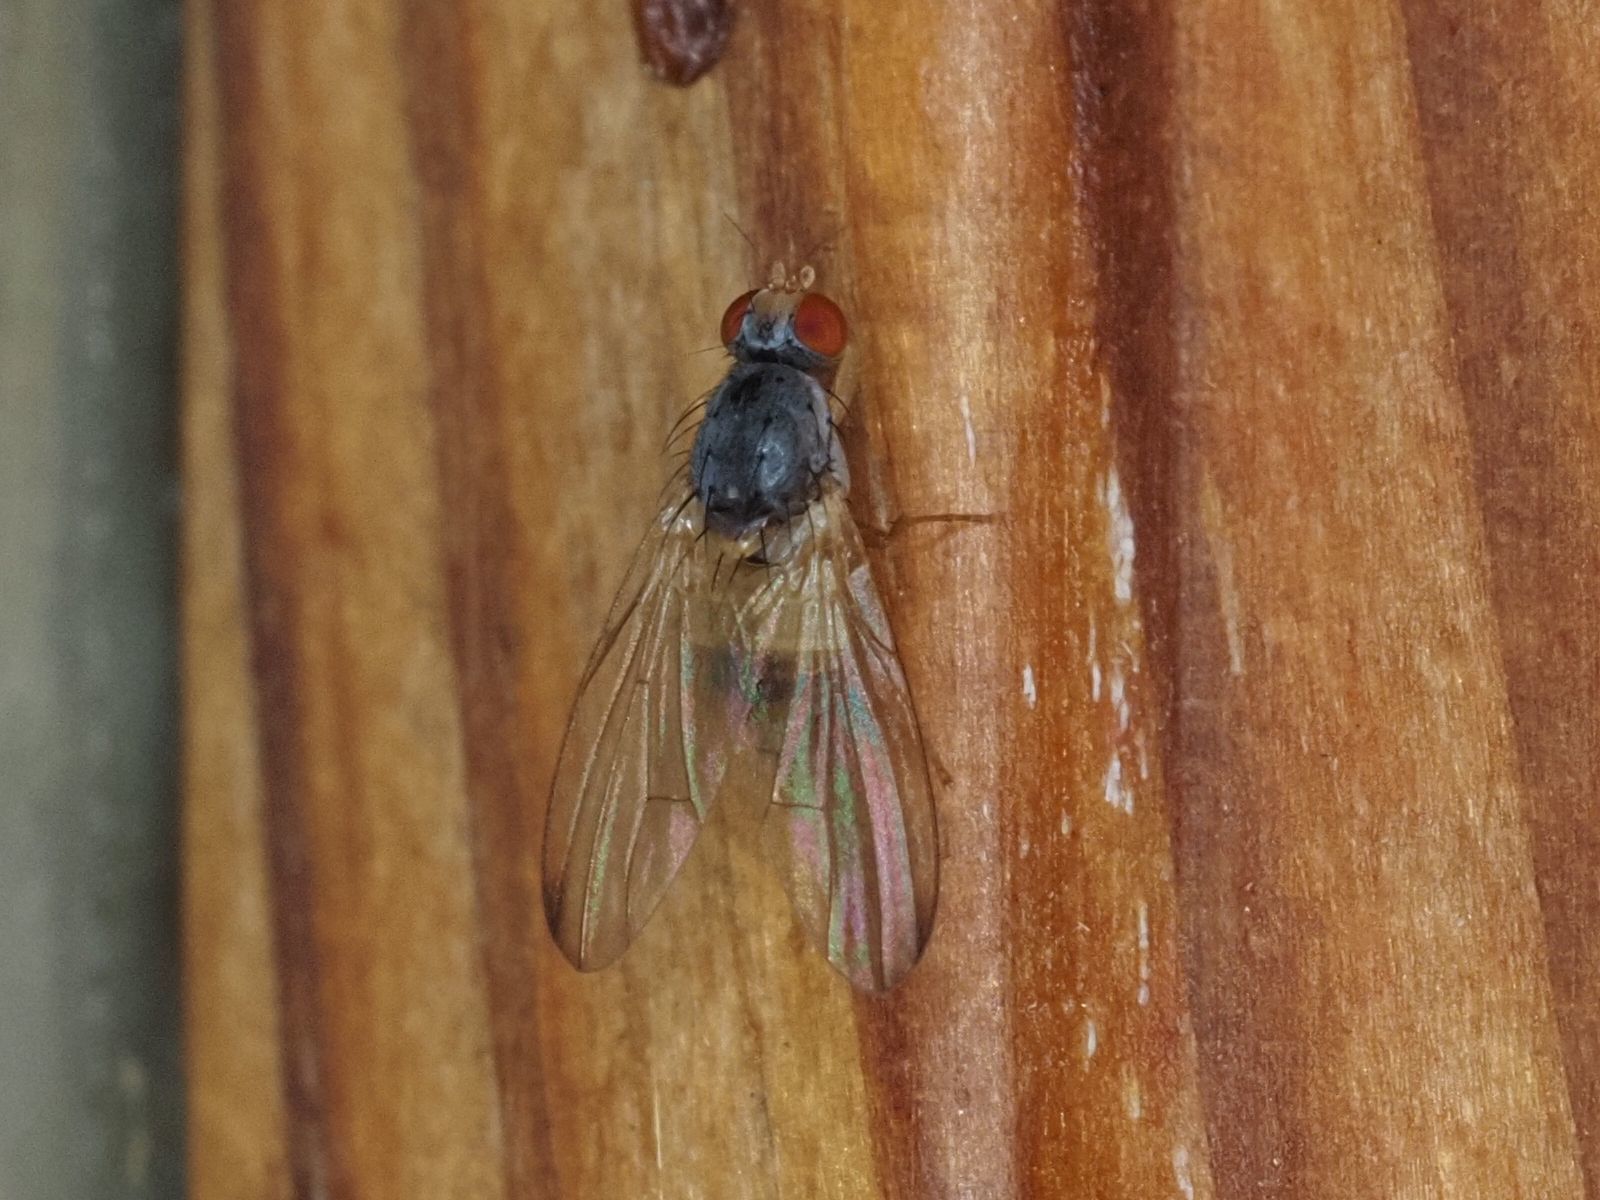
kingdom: Animalia
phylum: Arthropoda
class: Insecta
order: Diptera
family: Pallopteridae
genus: Palloptera
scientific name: Palloptera ustulata
